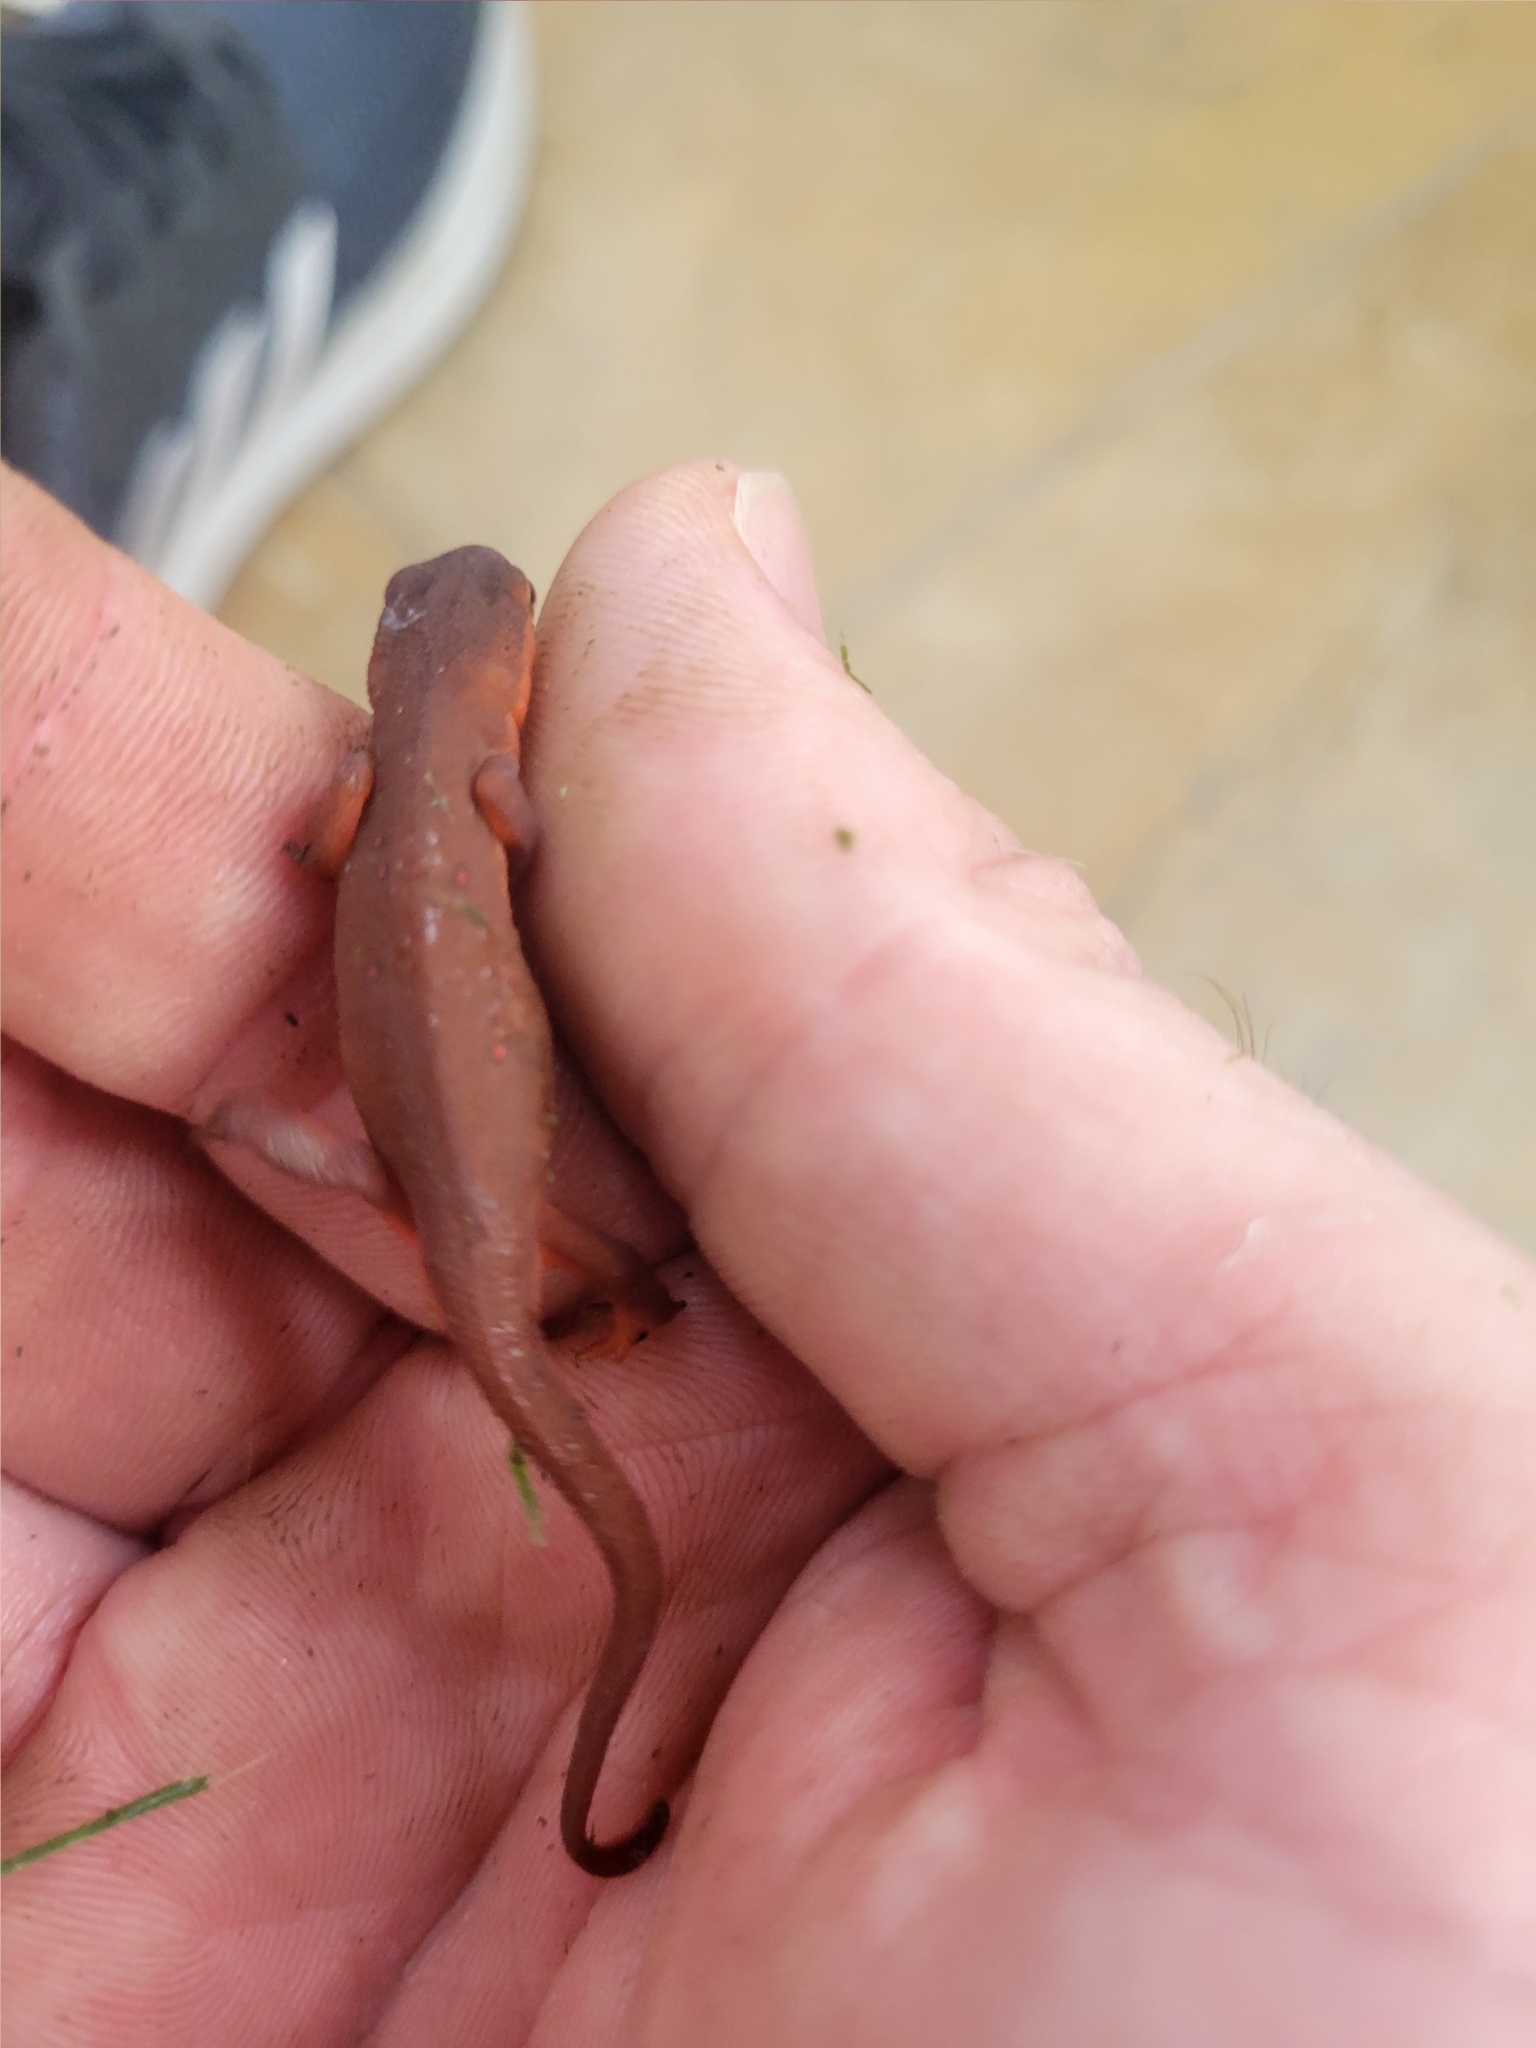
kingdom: Animalia
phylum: Chordata
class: Amphibia
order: Caudata
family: Salamandridae
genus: Notophthalmus
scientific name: Notophthalmus viridescens
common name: Eastern newt
